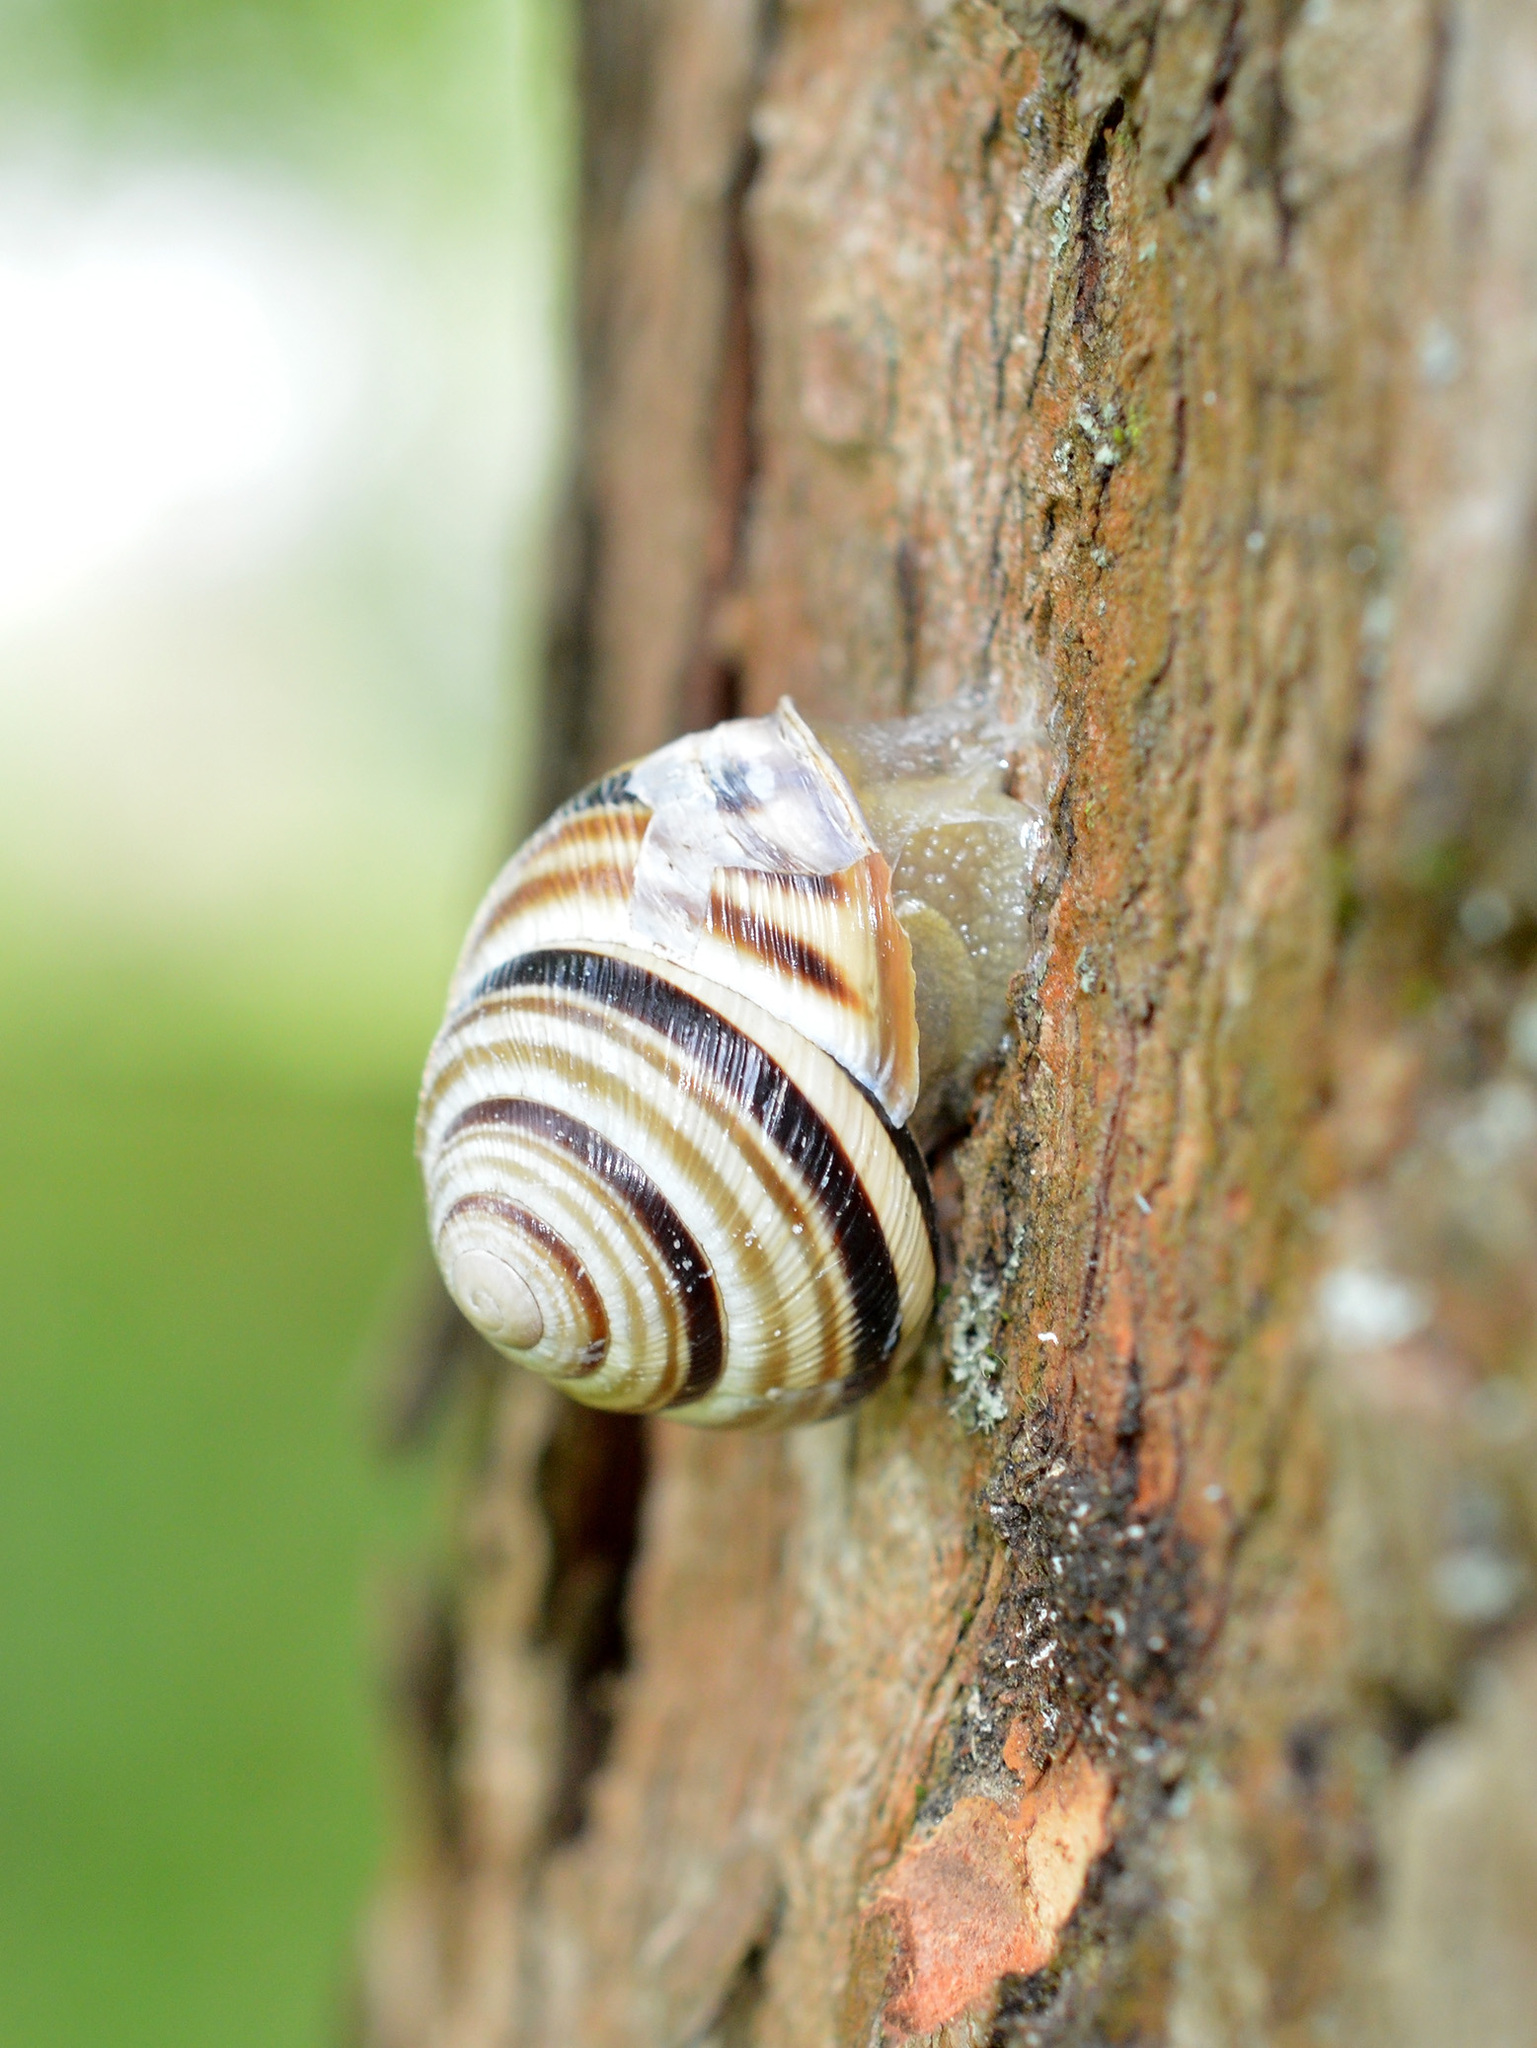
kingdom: Animalia
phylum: Mollusca
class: Gastropoda
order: Stylommatophora
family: Helicidae
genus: Caucasotachea
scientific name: Caucasotachea vindobonensis
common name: European helicid land snail
